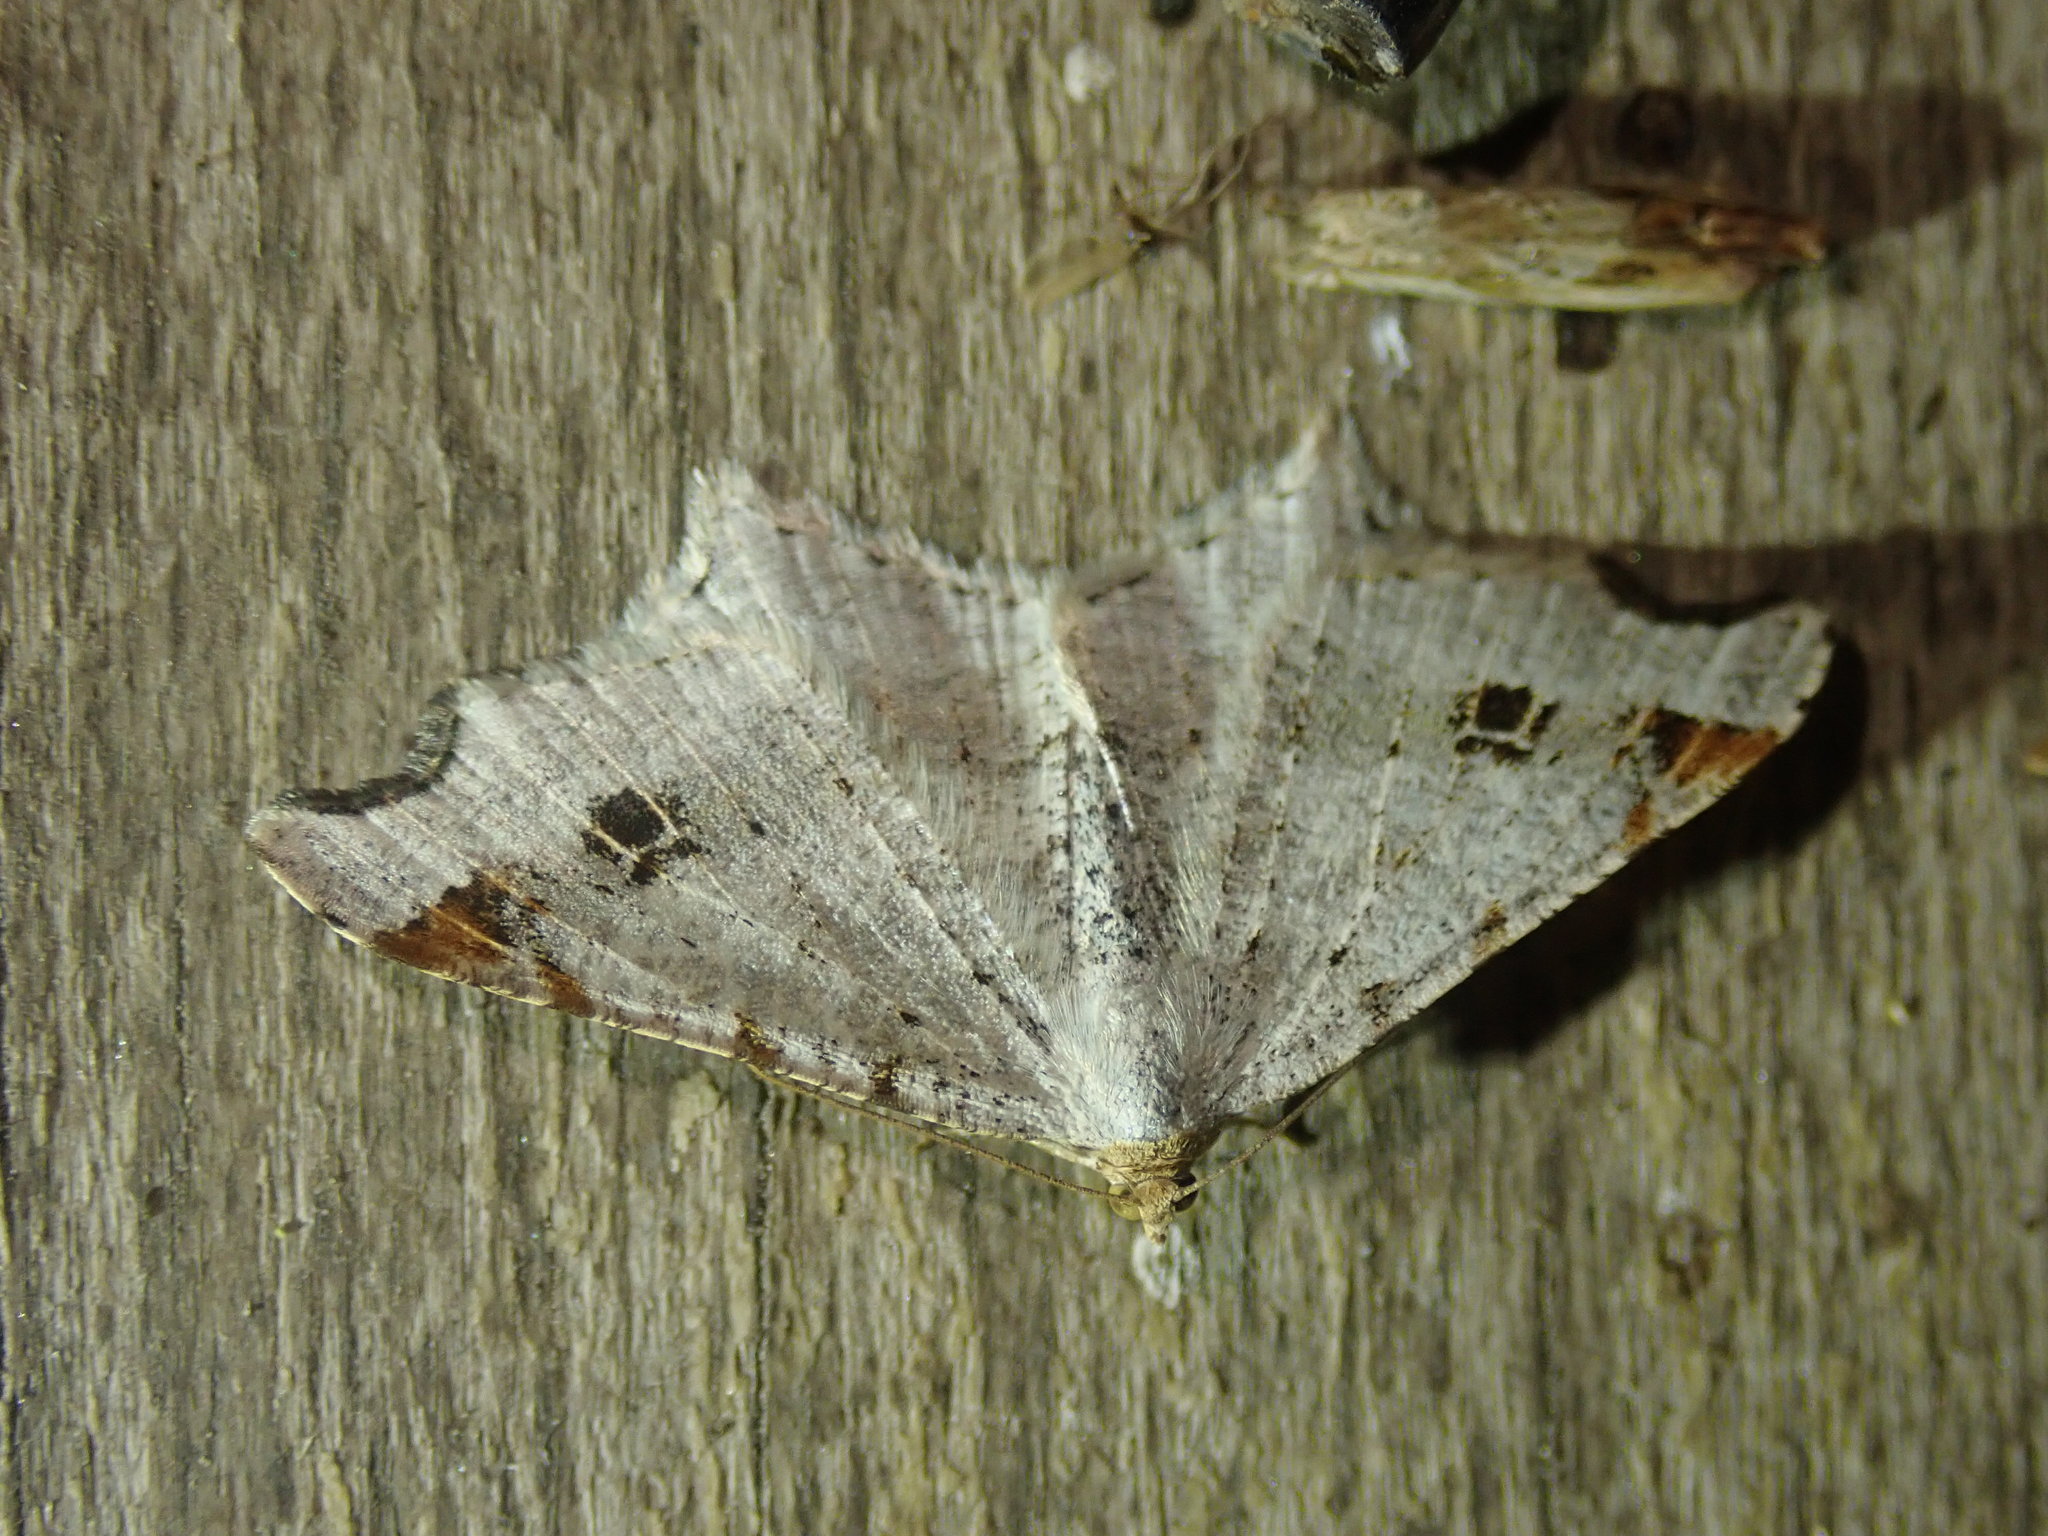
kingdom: Animalia
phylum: Arthropoda
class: Insecta
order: Lepidoptera
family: Geometridae
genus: Macaria
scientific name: Macaria alternata
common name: Sharp-angled peacock
